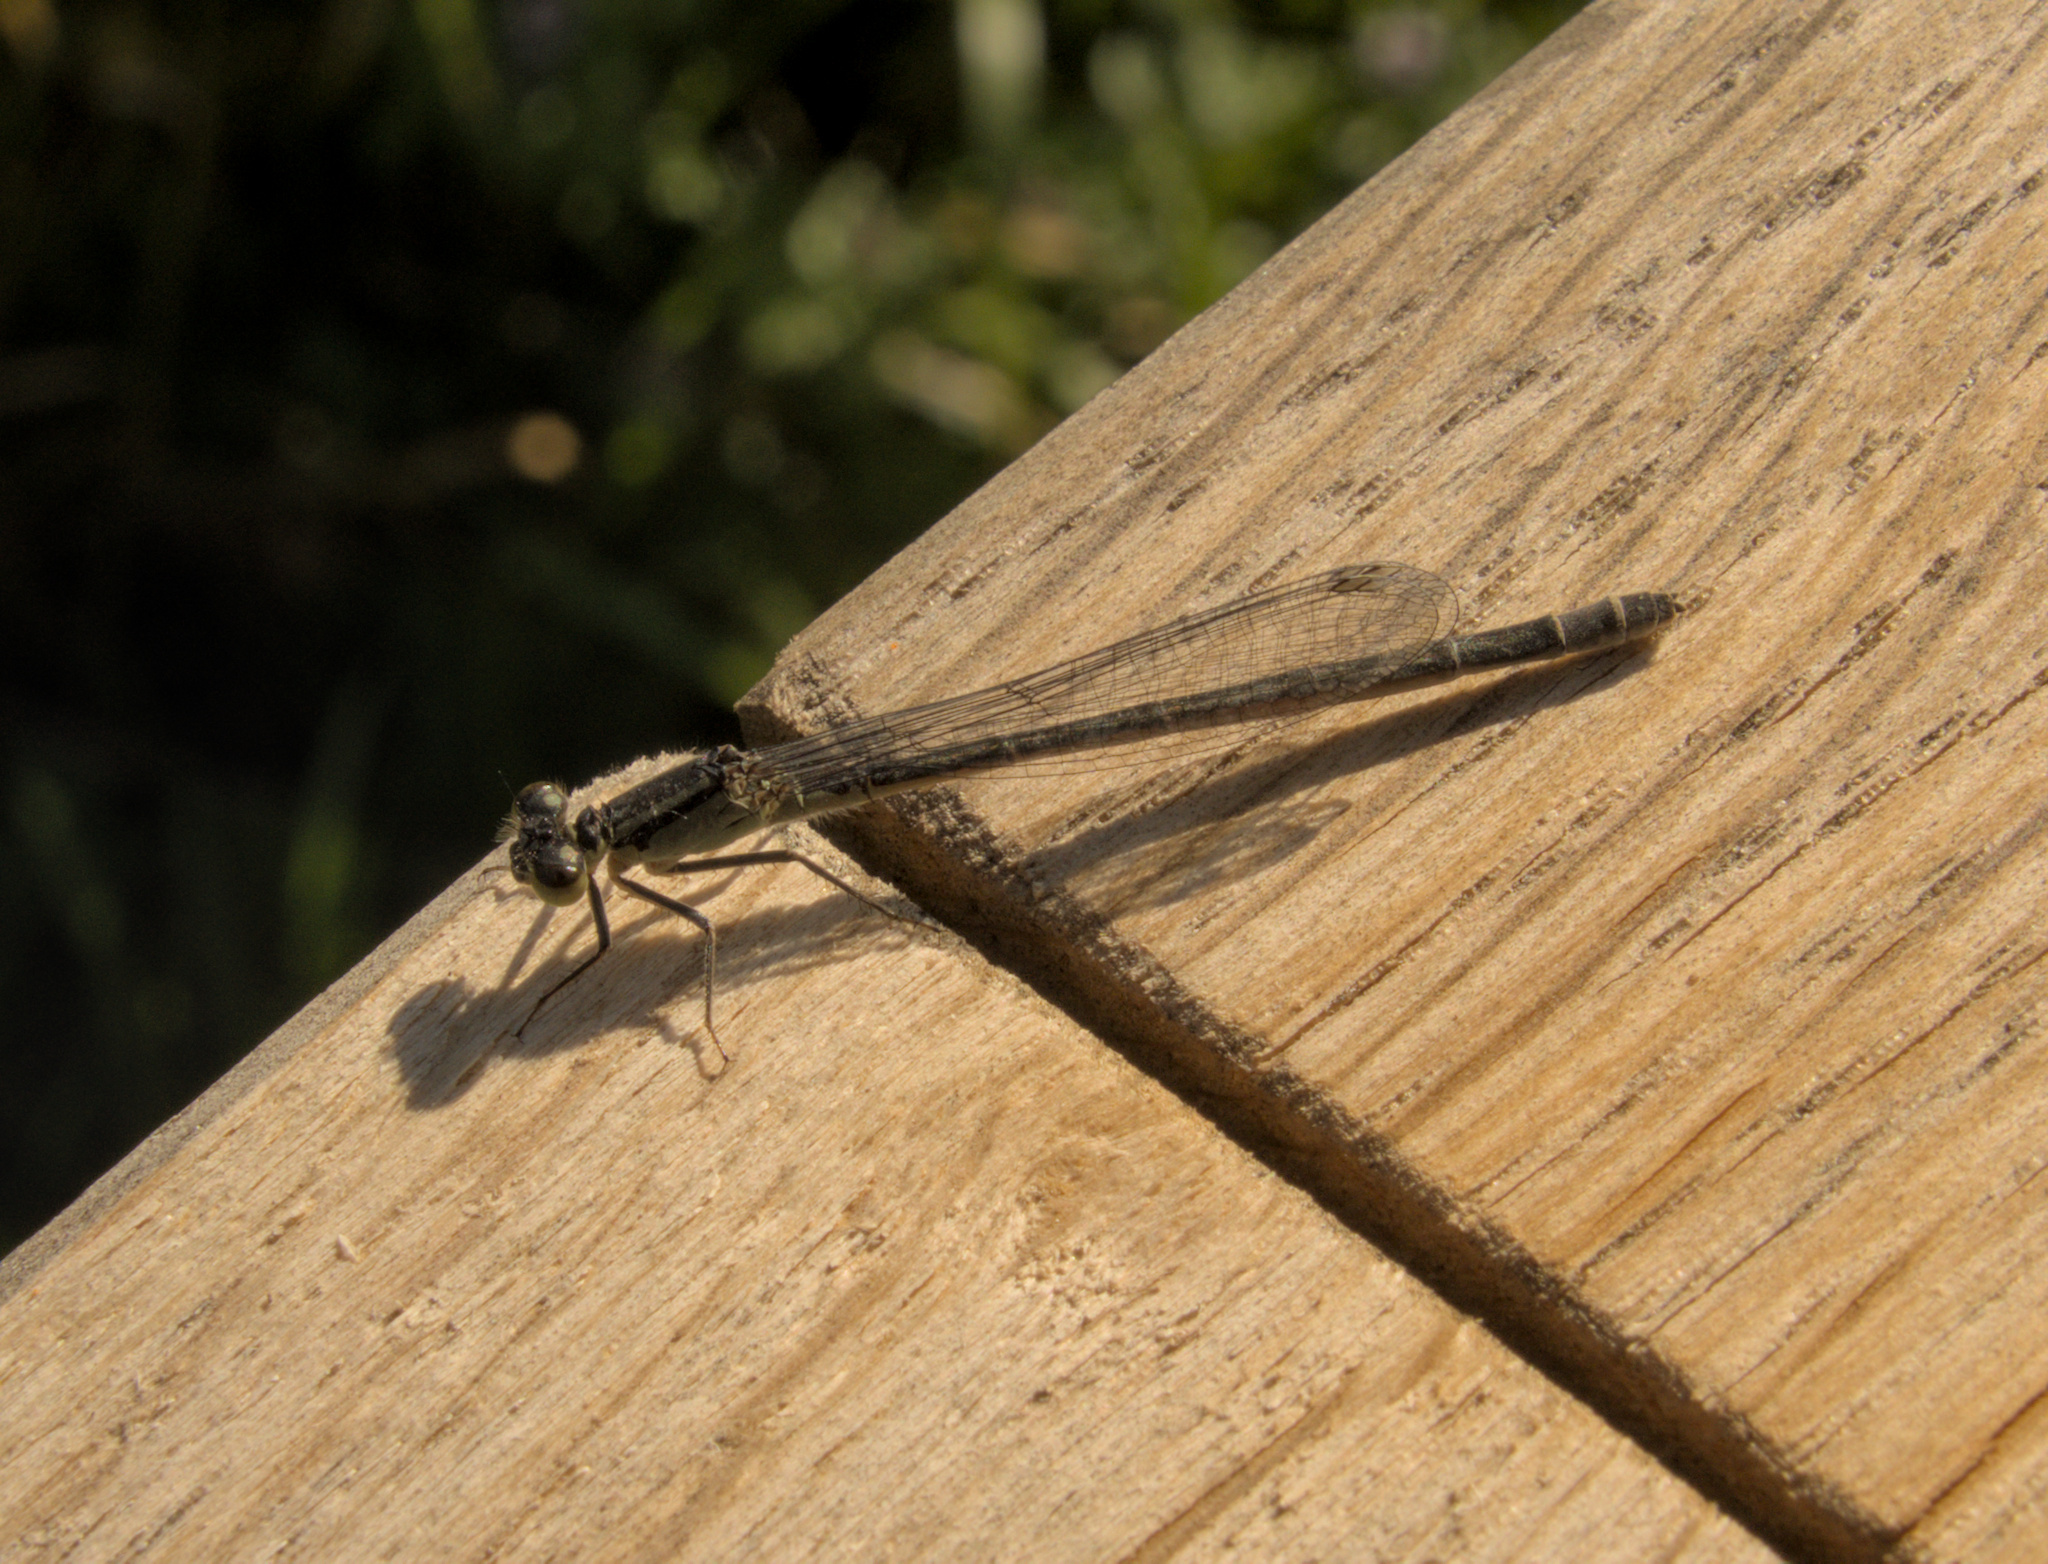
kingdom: Animalia
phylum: Arthropoda
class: Insecta
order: Odonata
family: Coenagrionidae
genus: Ischnura
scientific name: Ischnura elegans
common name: Blue-tailed damselfly
